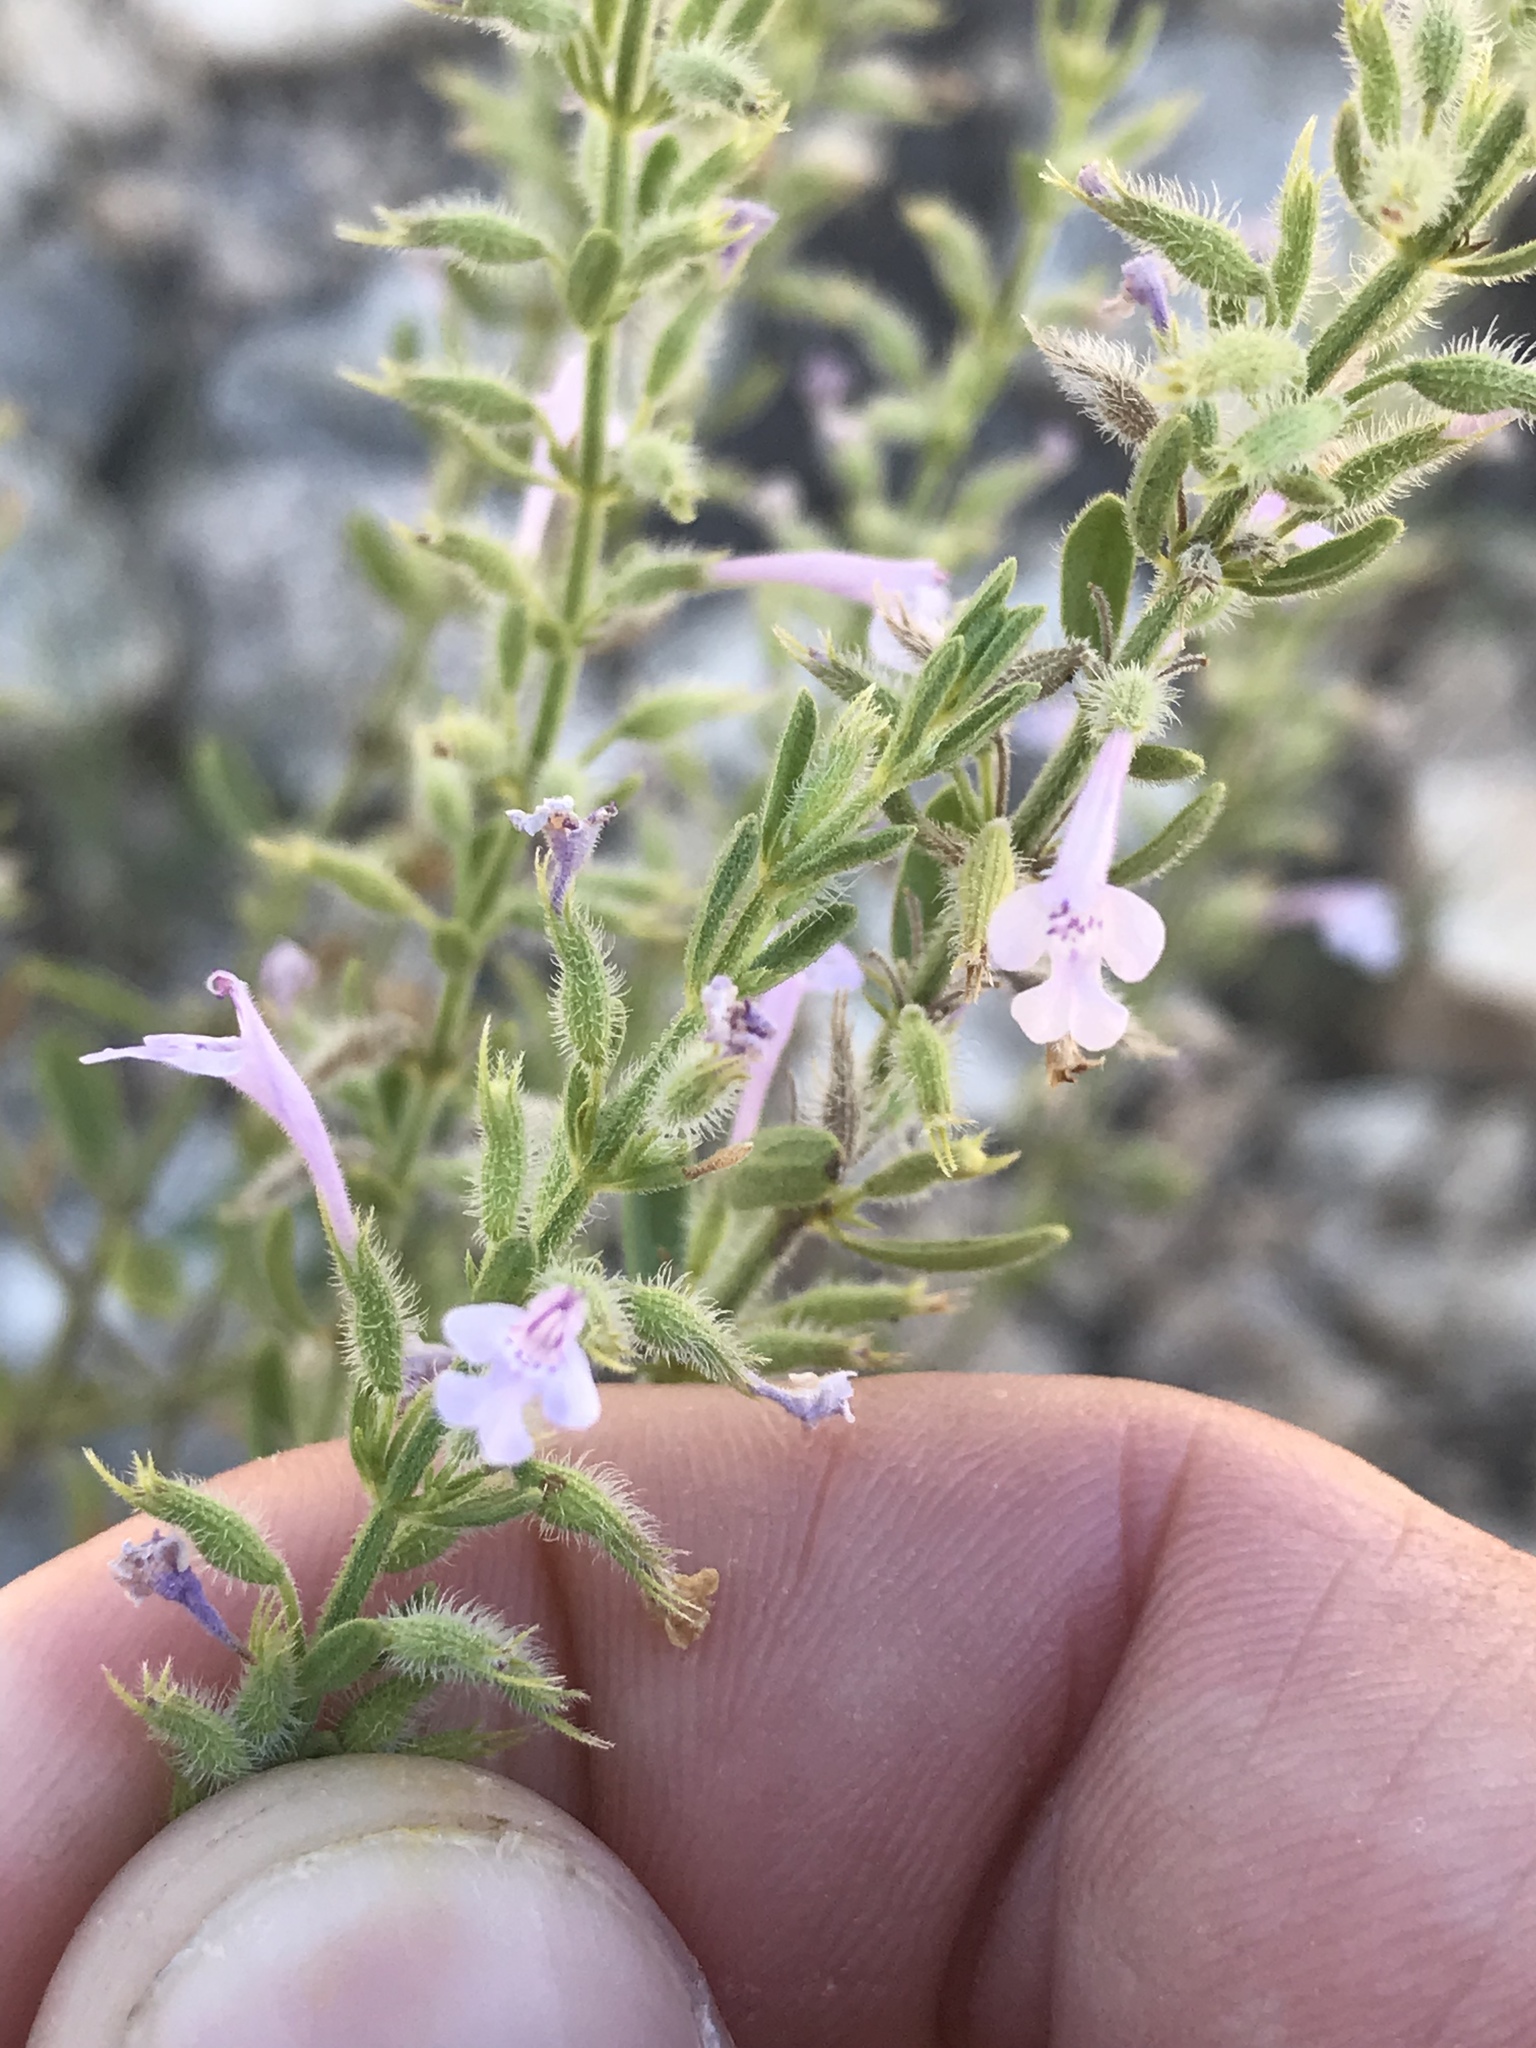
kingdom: Plantae
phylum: Tracheophyta
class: Magnoliopsida
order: Lamiales
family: Lamiaceae
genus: Hedeoma
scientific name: Hedeoma reverchonii
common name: Reverchon's false penny-royal
